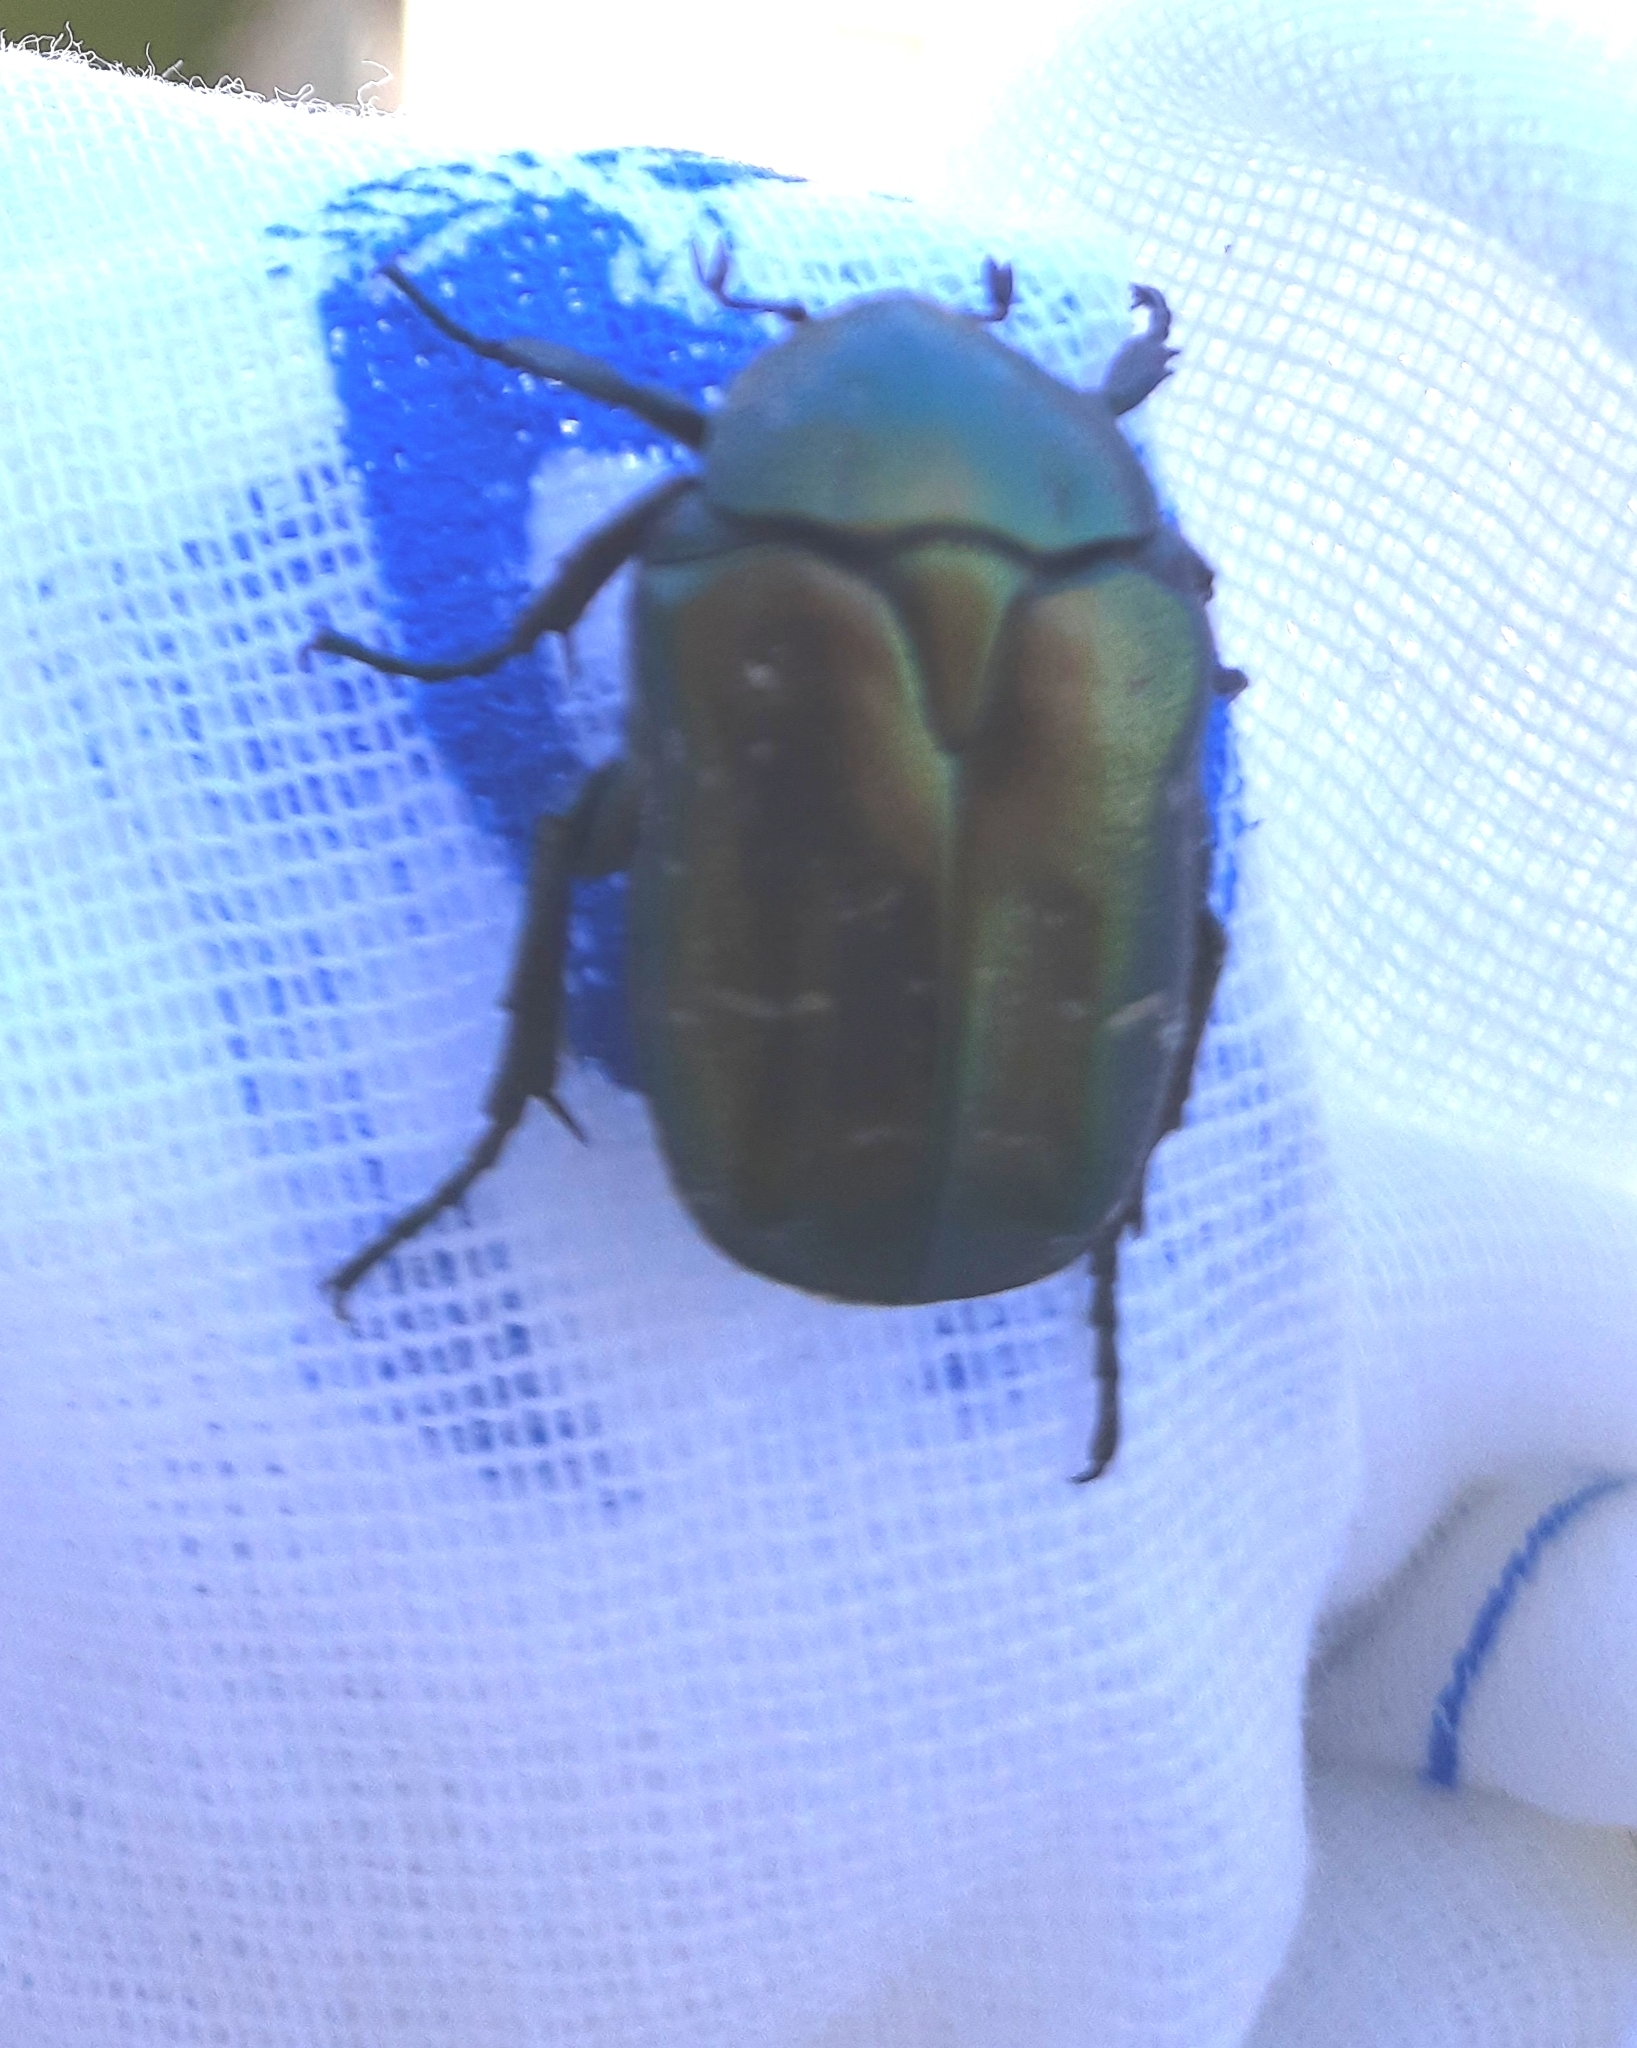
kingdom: Animalia
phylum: Arthropoda
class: Insecta
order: Coleoptera
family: Scarabaeidae
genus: Protaetia
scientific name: Protaetia cuprea
